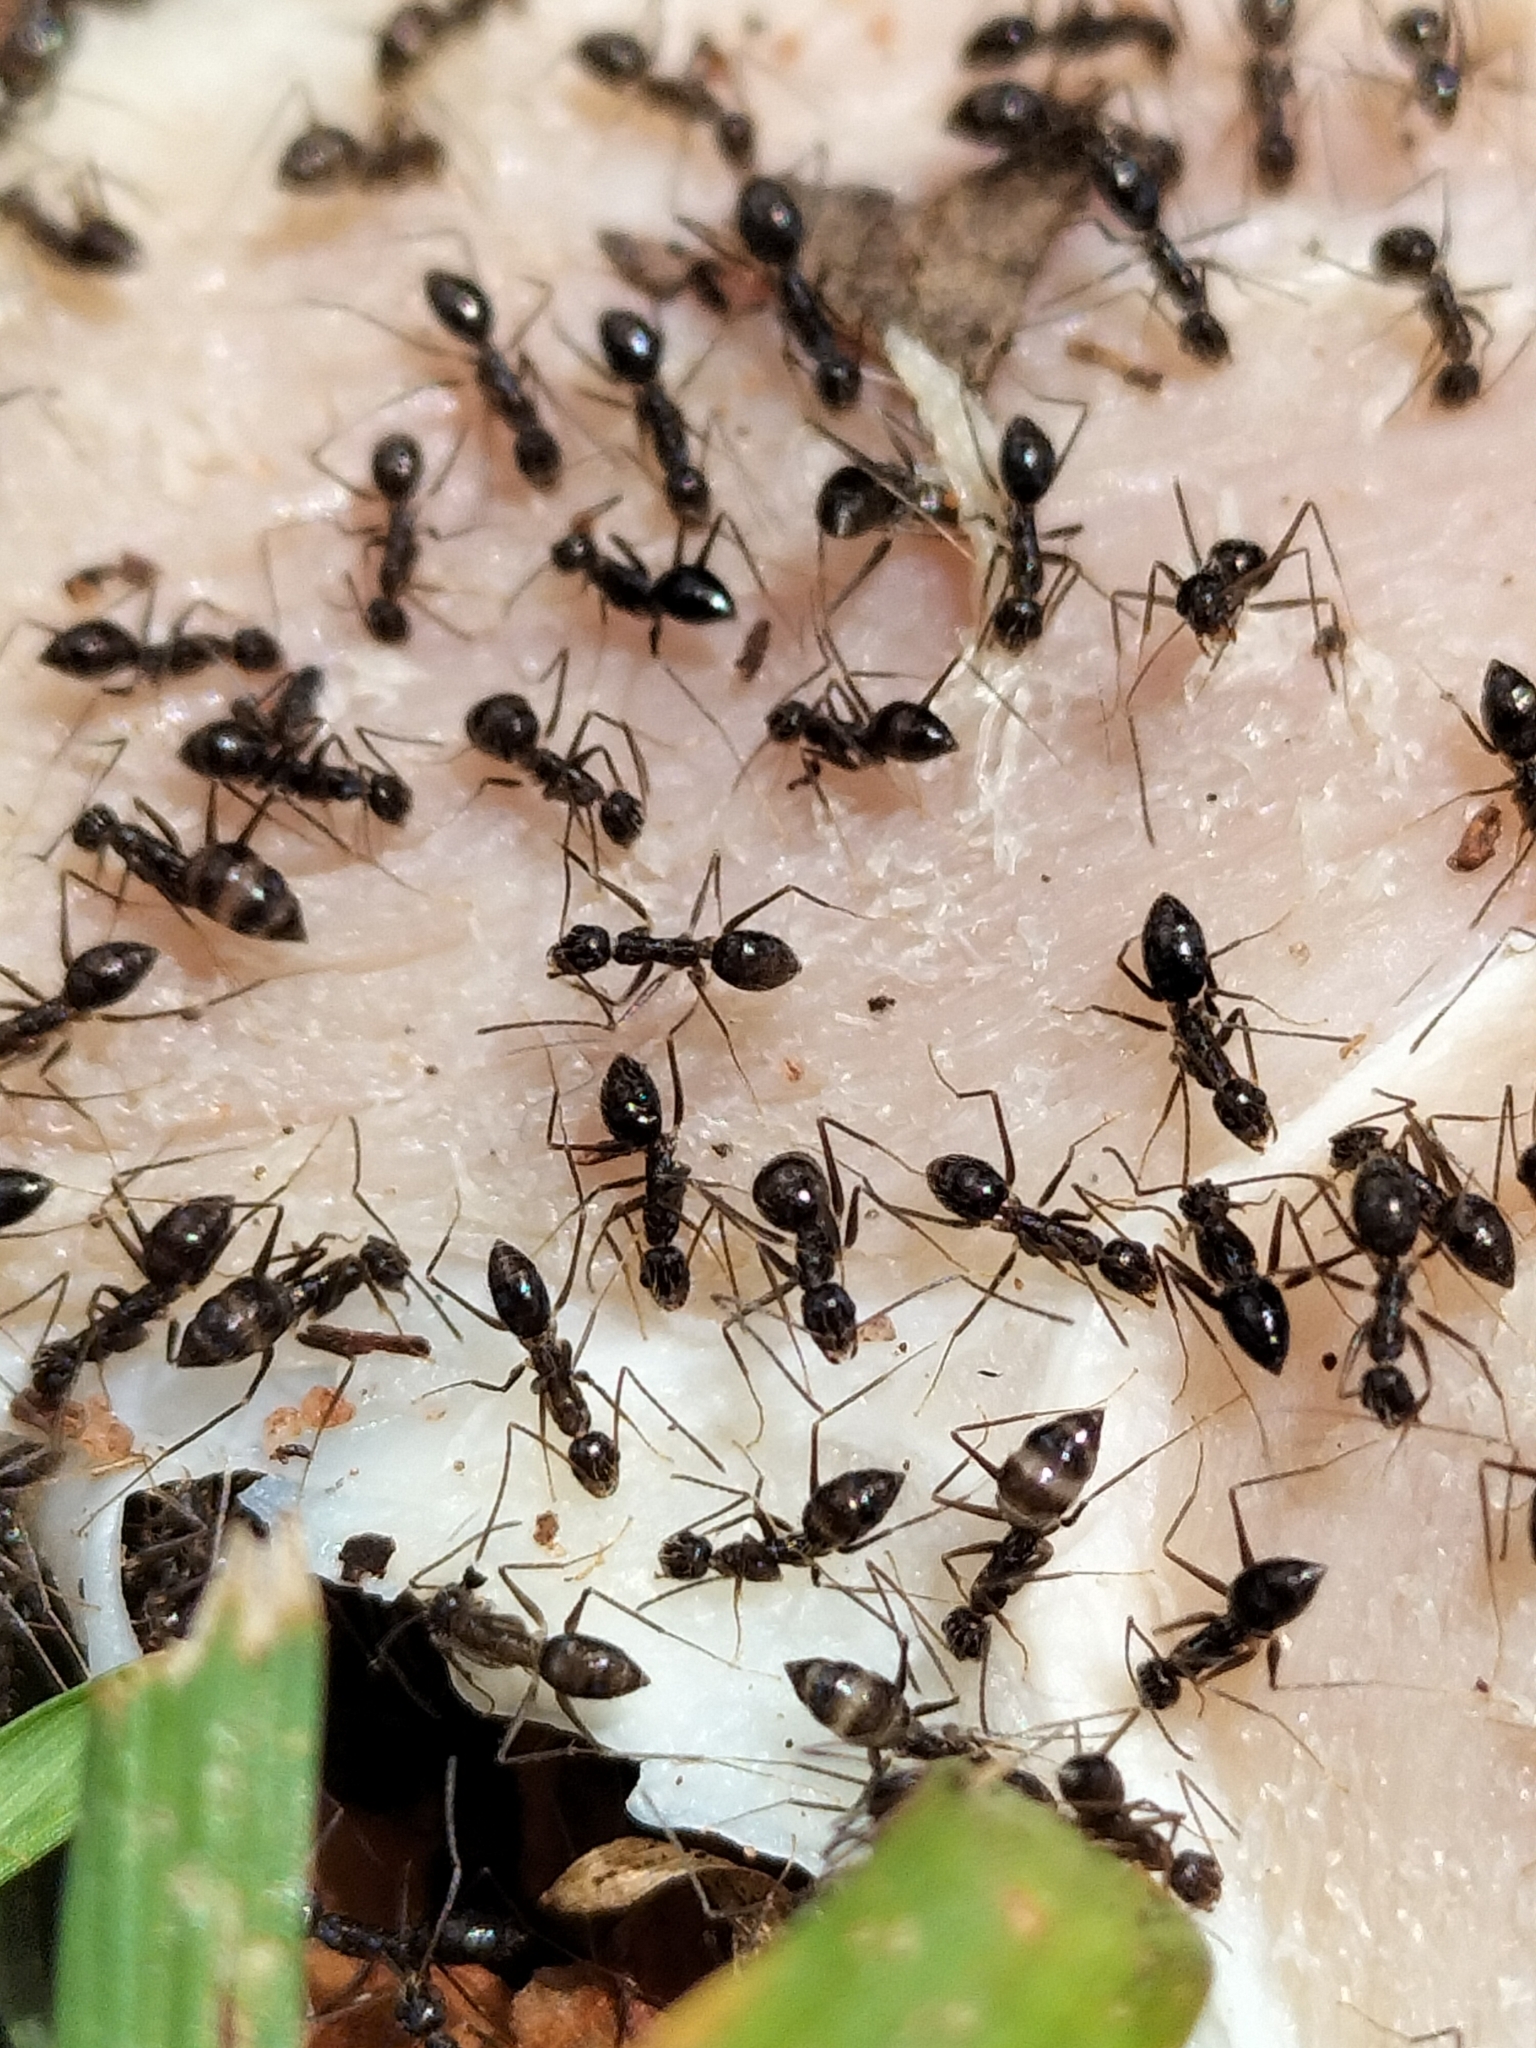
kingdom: Animalia
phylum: Arthropoda
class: Insecta
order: Hymenoptera
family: Formicidae
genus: Paratrechina
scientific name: Paratrechina longicornis
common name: Longhorned crazy ant
